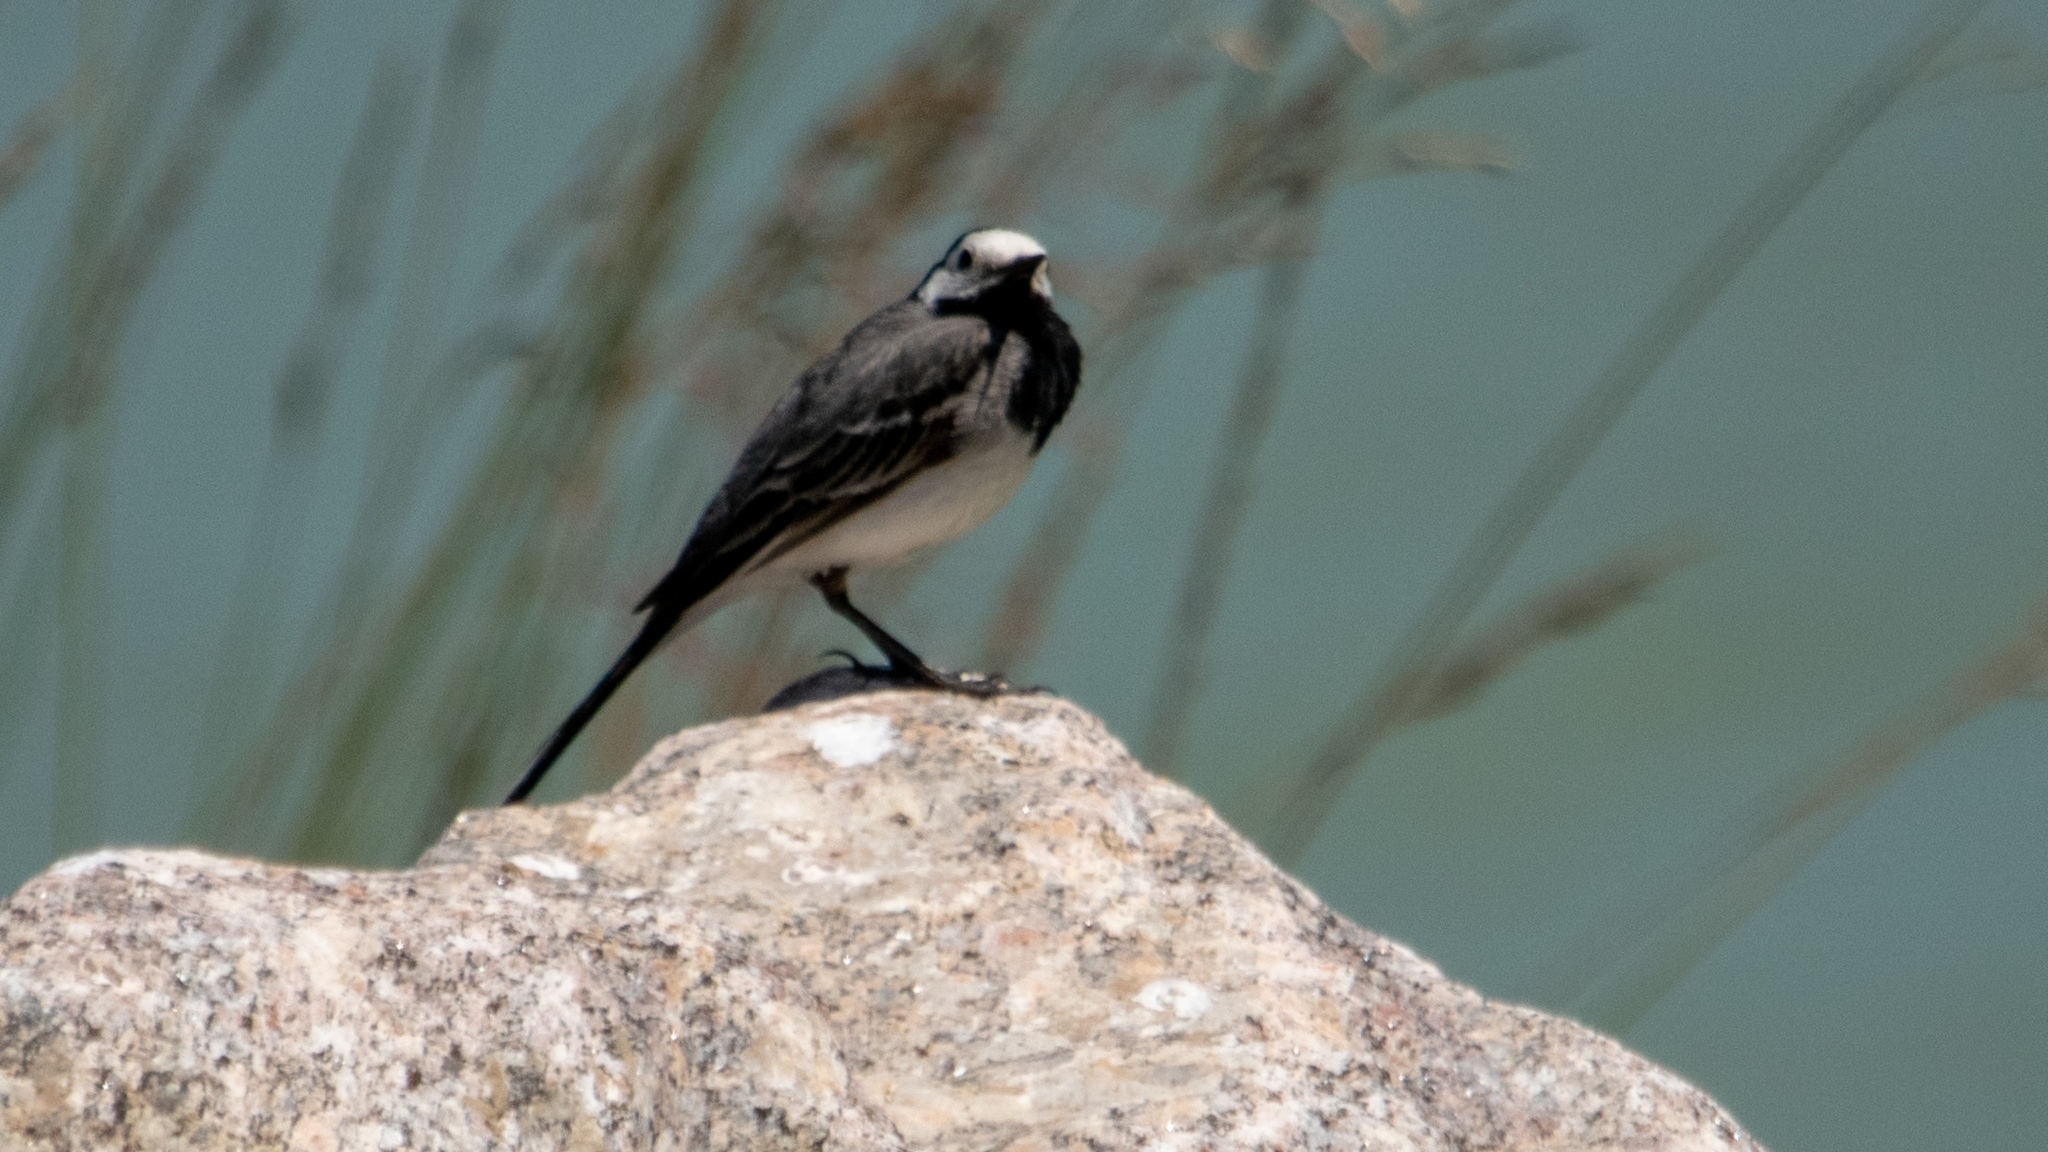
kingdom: Animalia
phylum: Chordata
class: Aves
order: Passeriformes
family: Motacillidae
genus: Motacilla
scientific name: Motacilla alba
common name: White wagtail
